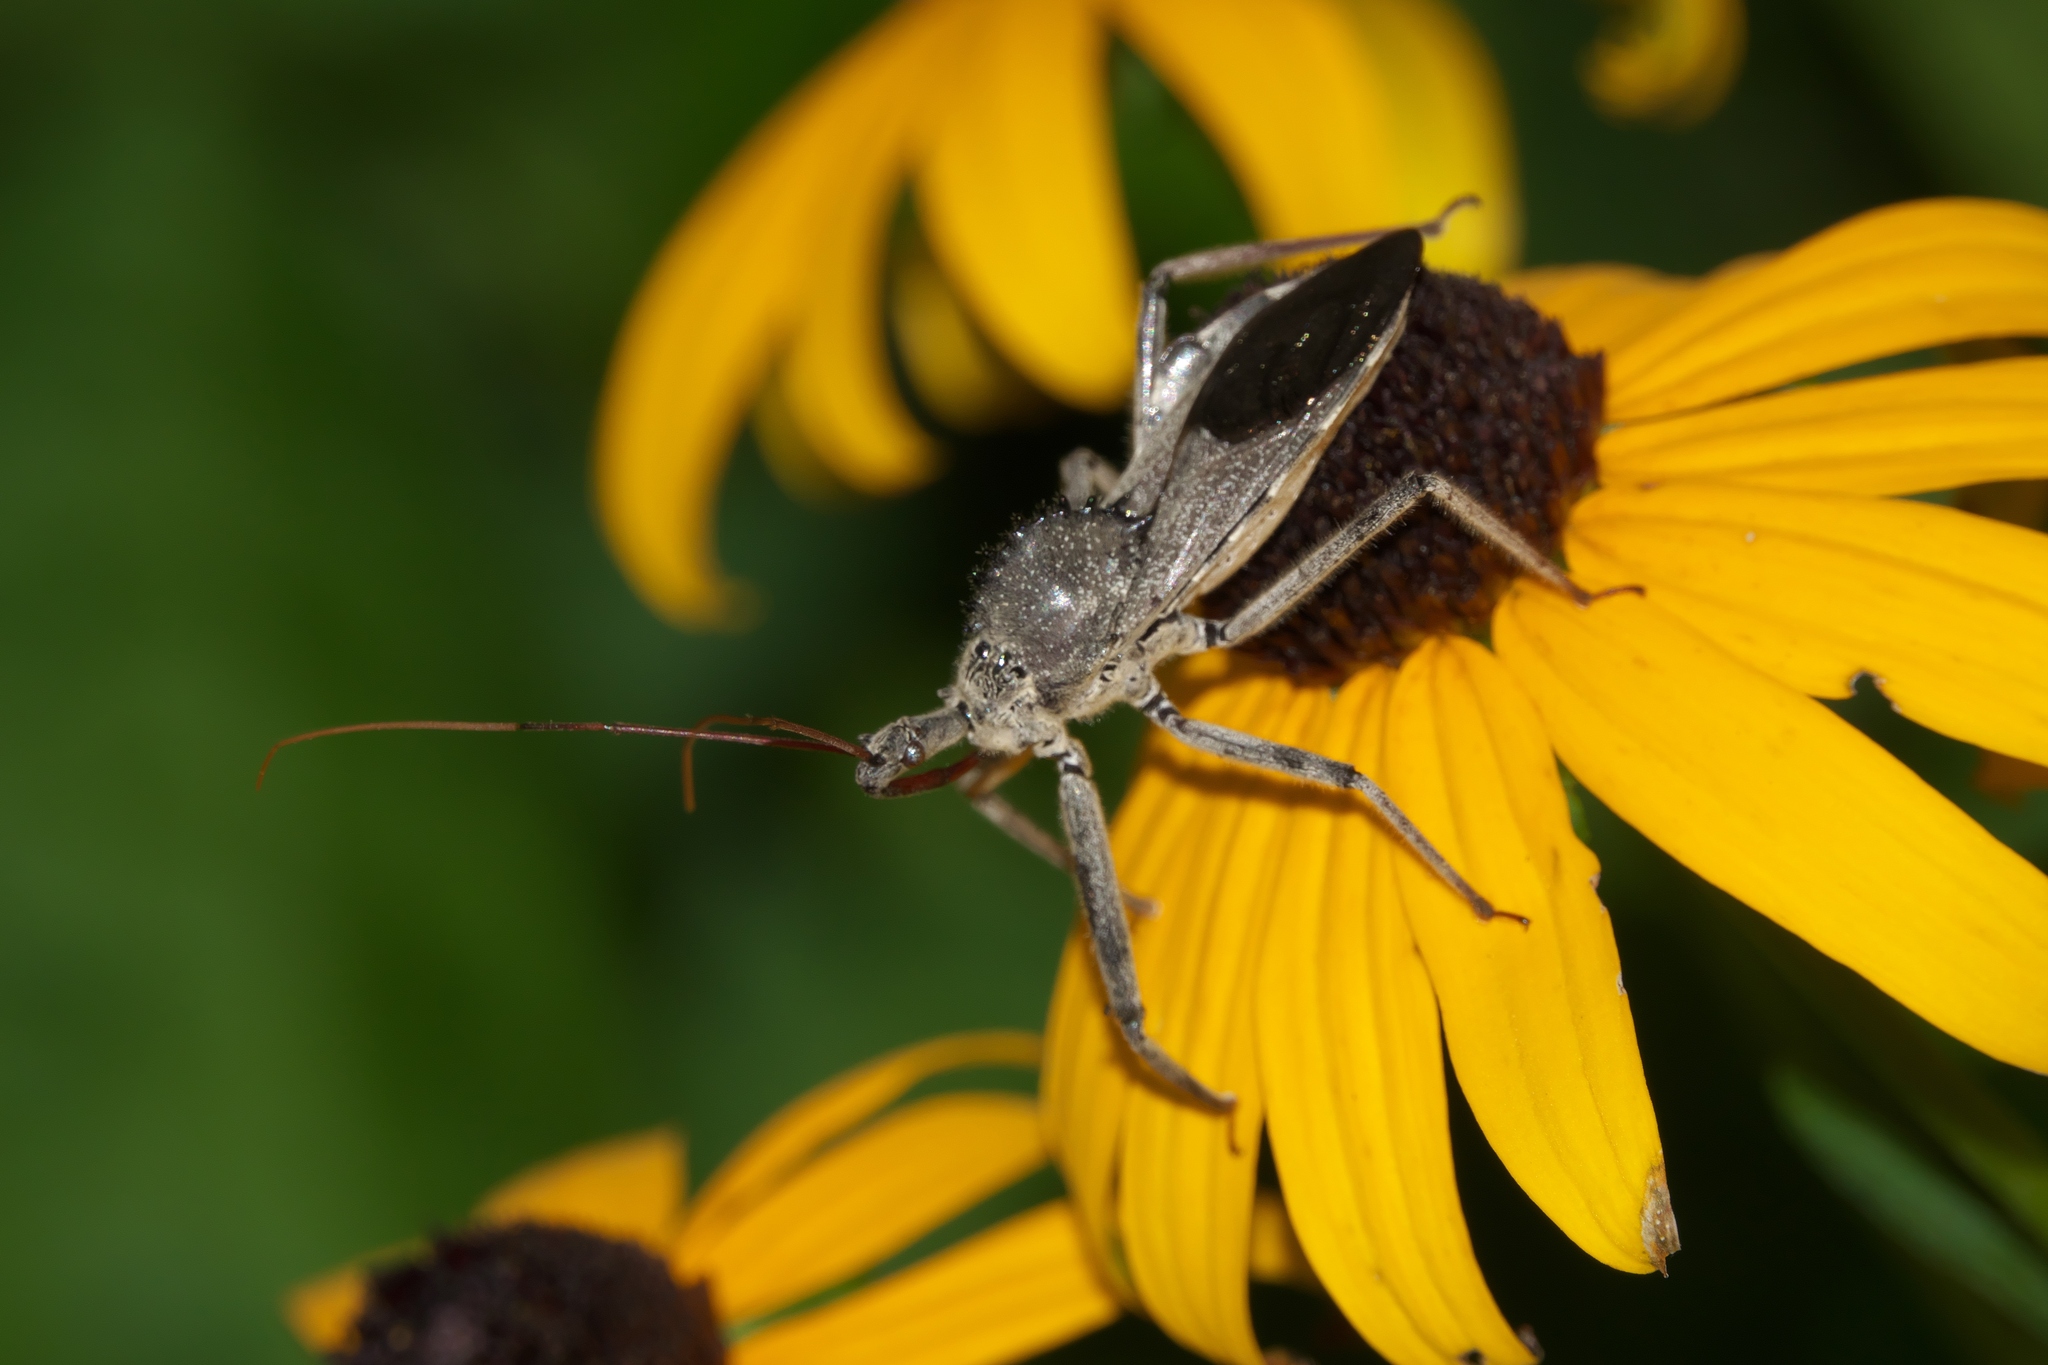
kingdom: Animalia
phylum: Arthropoda
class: Insecta
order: Hemiptera
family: Reduviidae
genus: Arilus
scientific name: Arilus cristatus
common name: North american wheel bug
